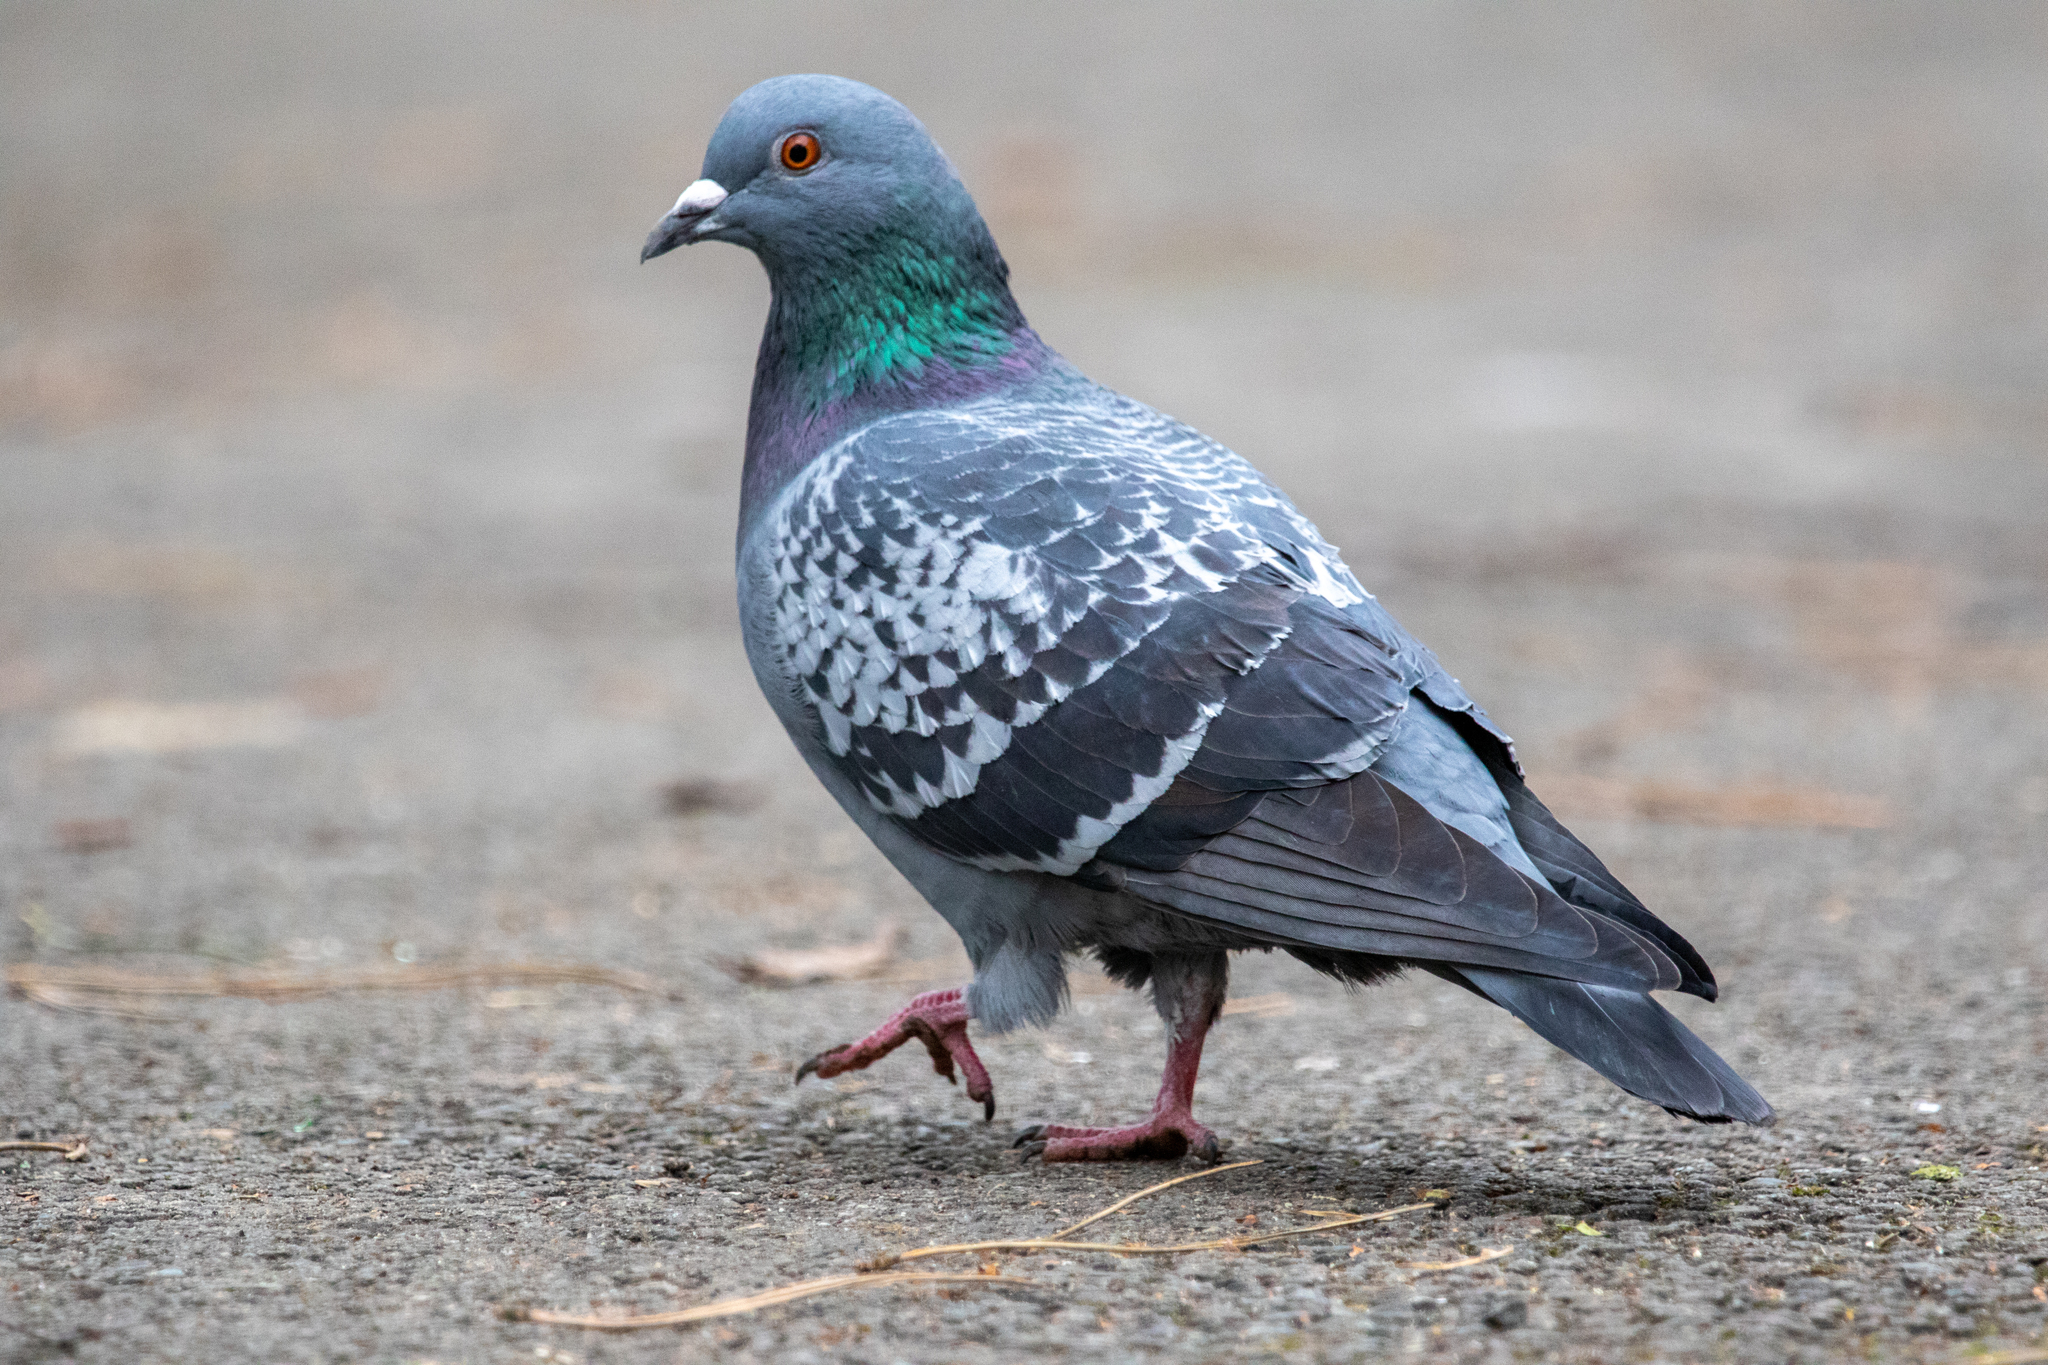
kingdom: Animalia
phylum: Chordata
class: Aves
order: Columbiformes
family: Columbidae
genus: Columba
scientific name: Columba livia
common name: Rock pigeon
